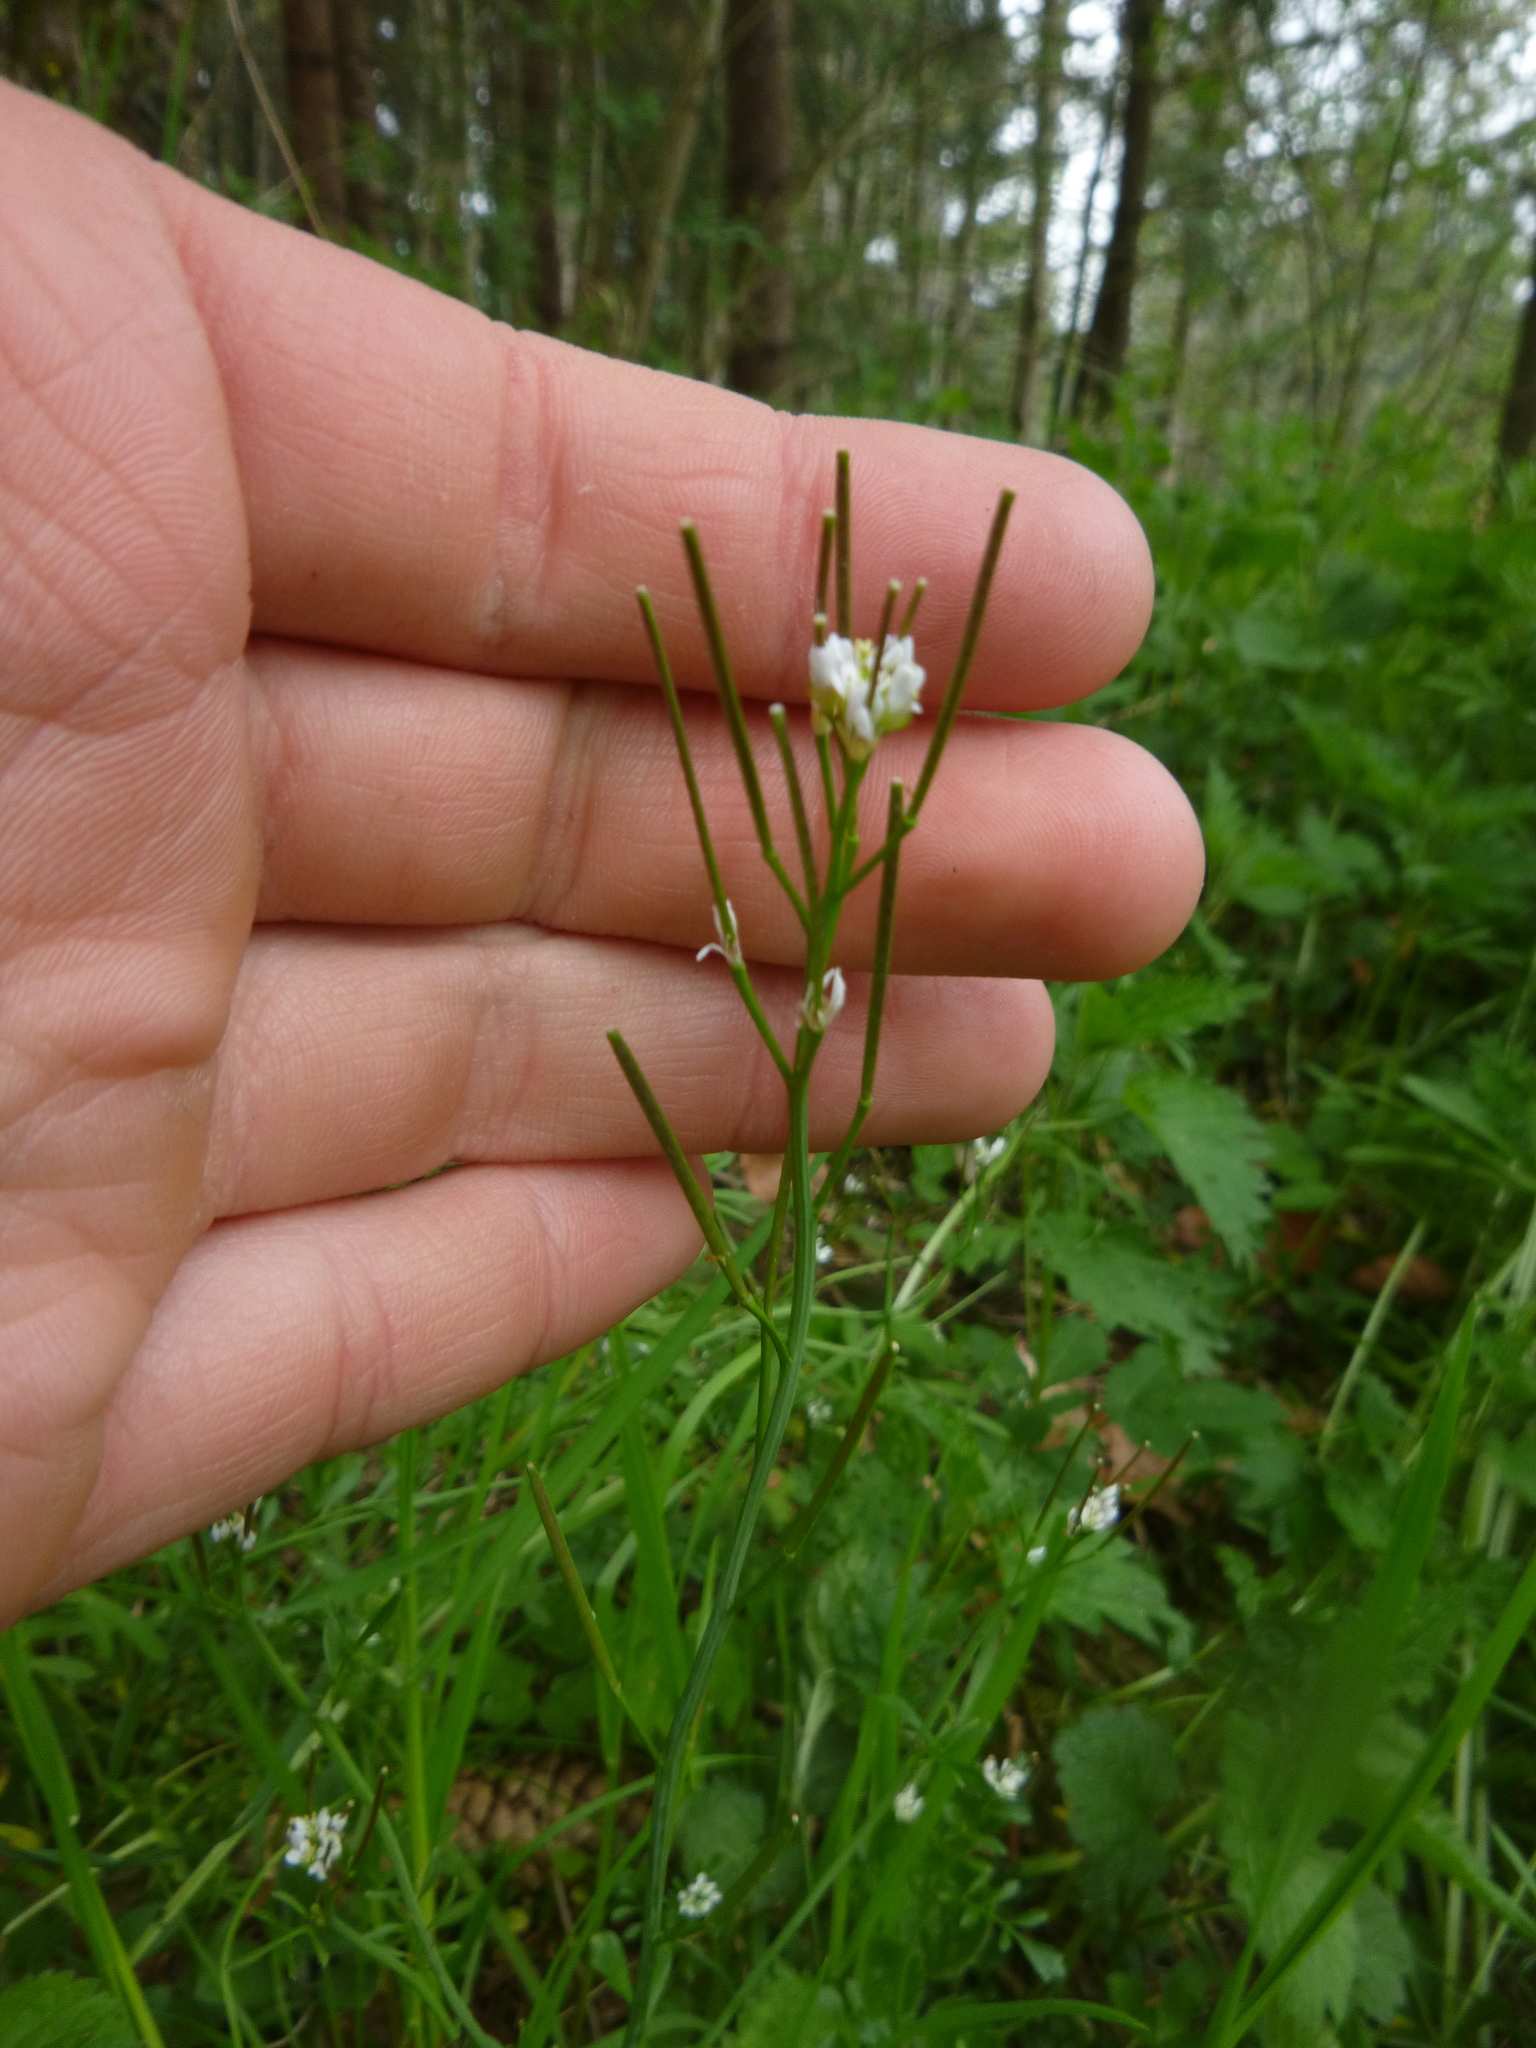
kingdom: Plantae
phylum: Tracheophyta
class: Magnoliopsida
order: Brassicales
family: Brassicaceae
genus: Cardamine
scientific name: Cardamine hirsuta
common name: Hairy bittercress
